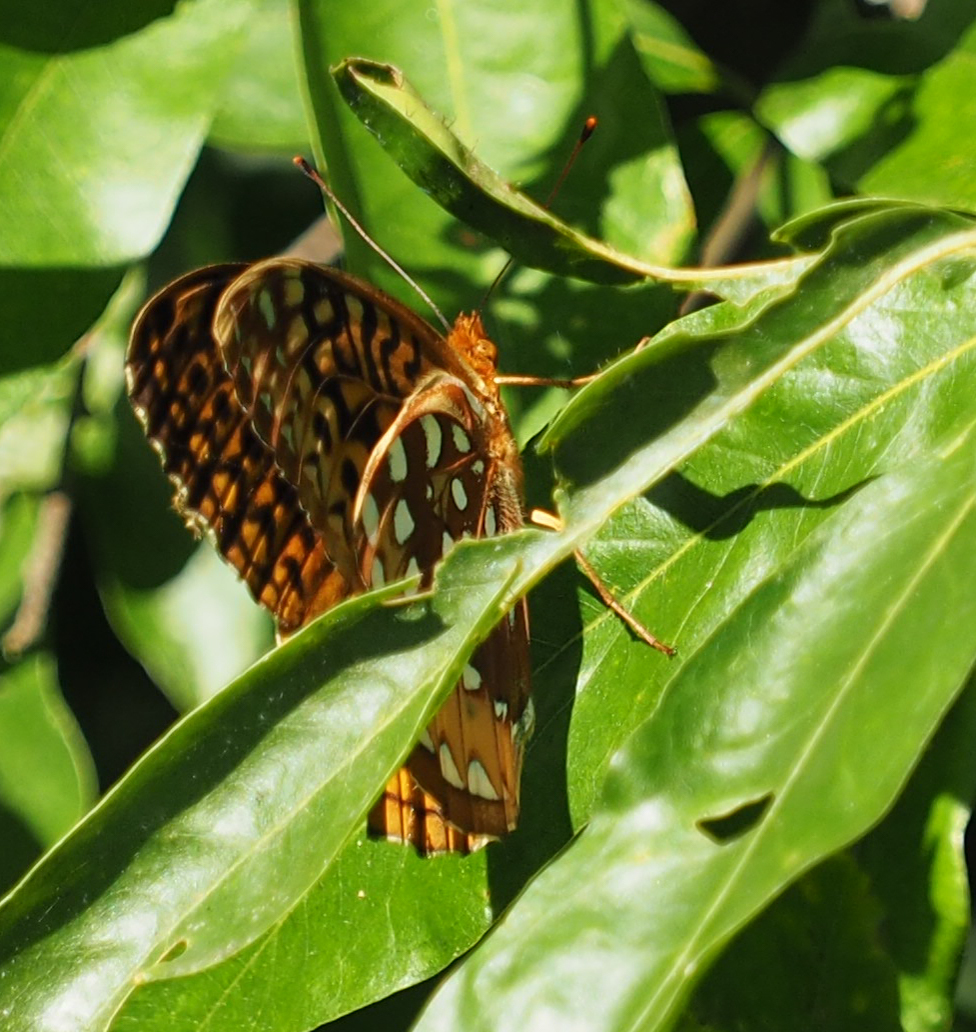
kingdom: Animalia
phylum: Arthropoda
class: Insecta
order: Lepidoptera
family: Nymphalidae
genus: Speyeria
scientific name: Speyeria cybele
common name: Great spangled fritillary
